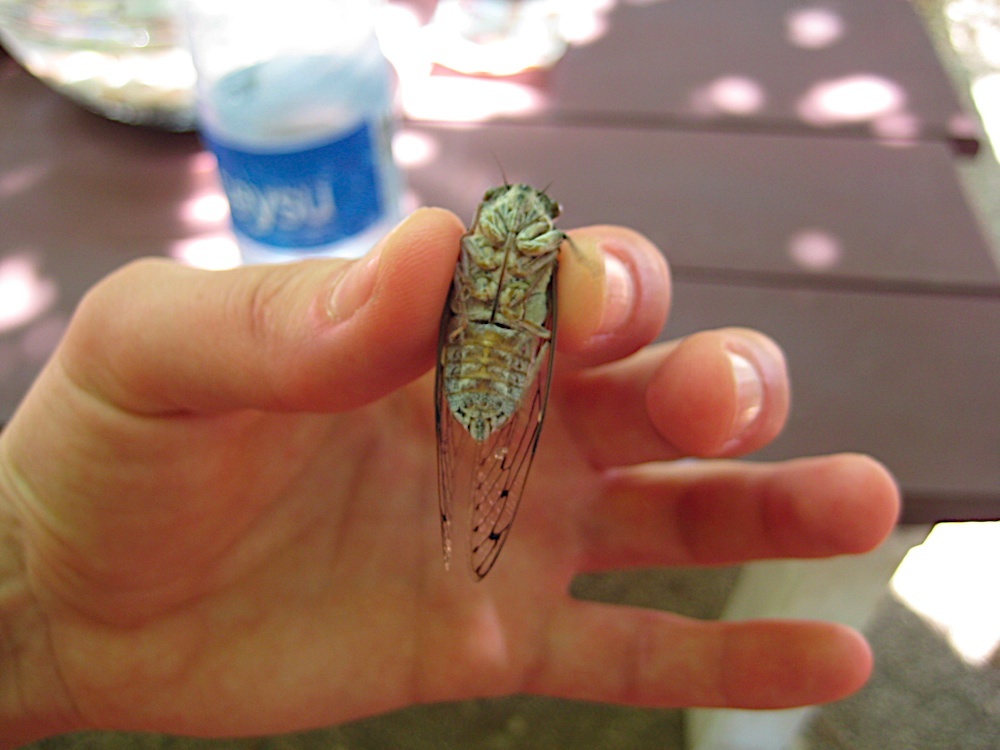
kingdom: Animalia
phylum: Arthropoda
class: Insecta
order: Hemiptera
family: Cicadidae
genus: Cicada
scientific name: Cicada orni
